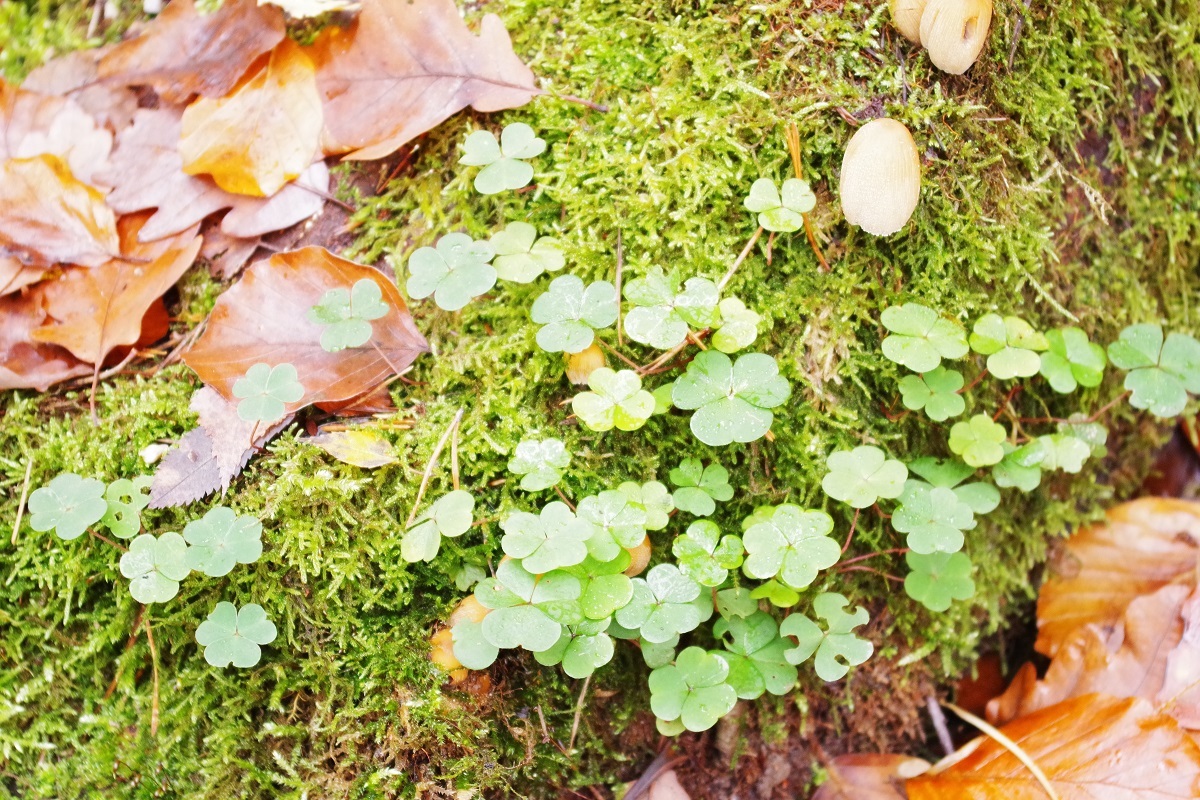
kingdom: Plantae
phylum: Tracheophyta
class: Magnoliopsida
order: Oxalidales
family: Oxalidaceae
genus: Oxalis
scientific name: Oxalis acetosella
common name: Wood-sorrel
